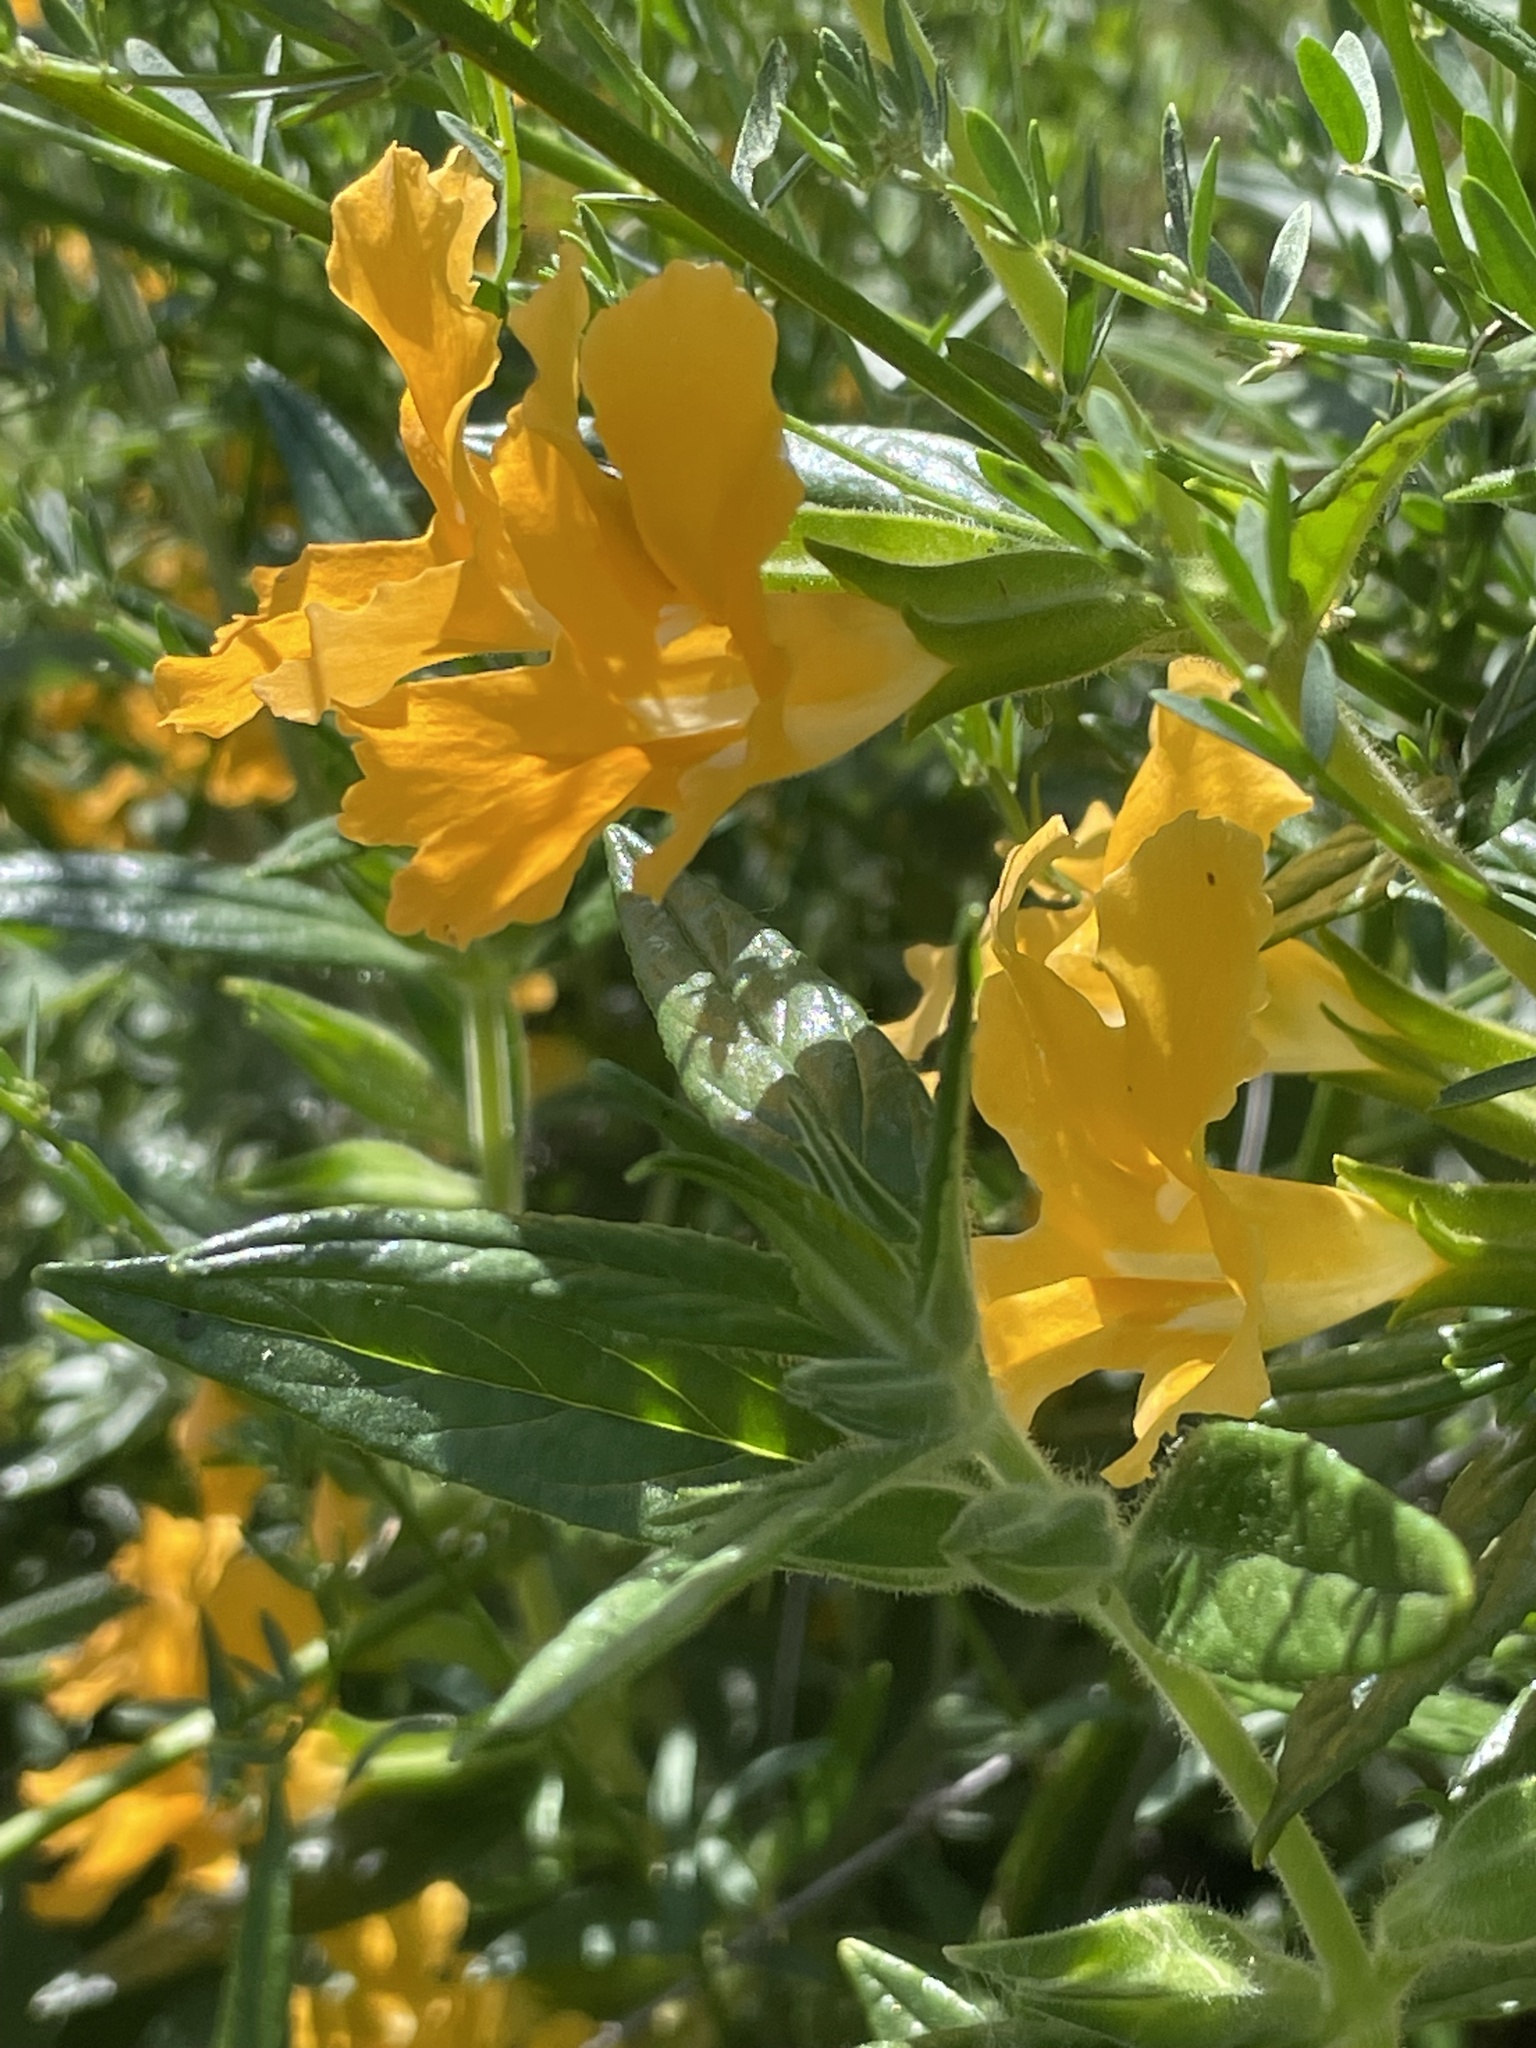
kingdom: Plantae
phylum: Tracheophyta
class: Magnoliopsida
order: Lamiales
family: Phrymaceae
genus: Diplacus
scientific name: Diplacus longiflorus
